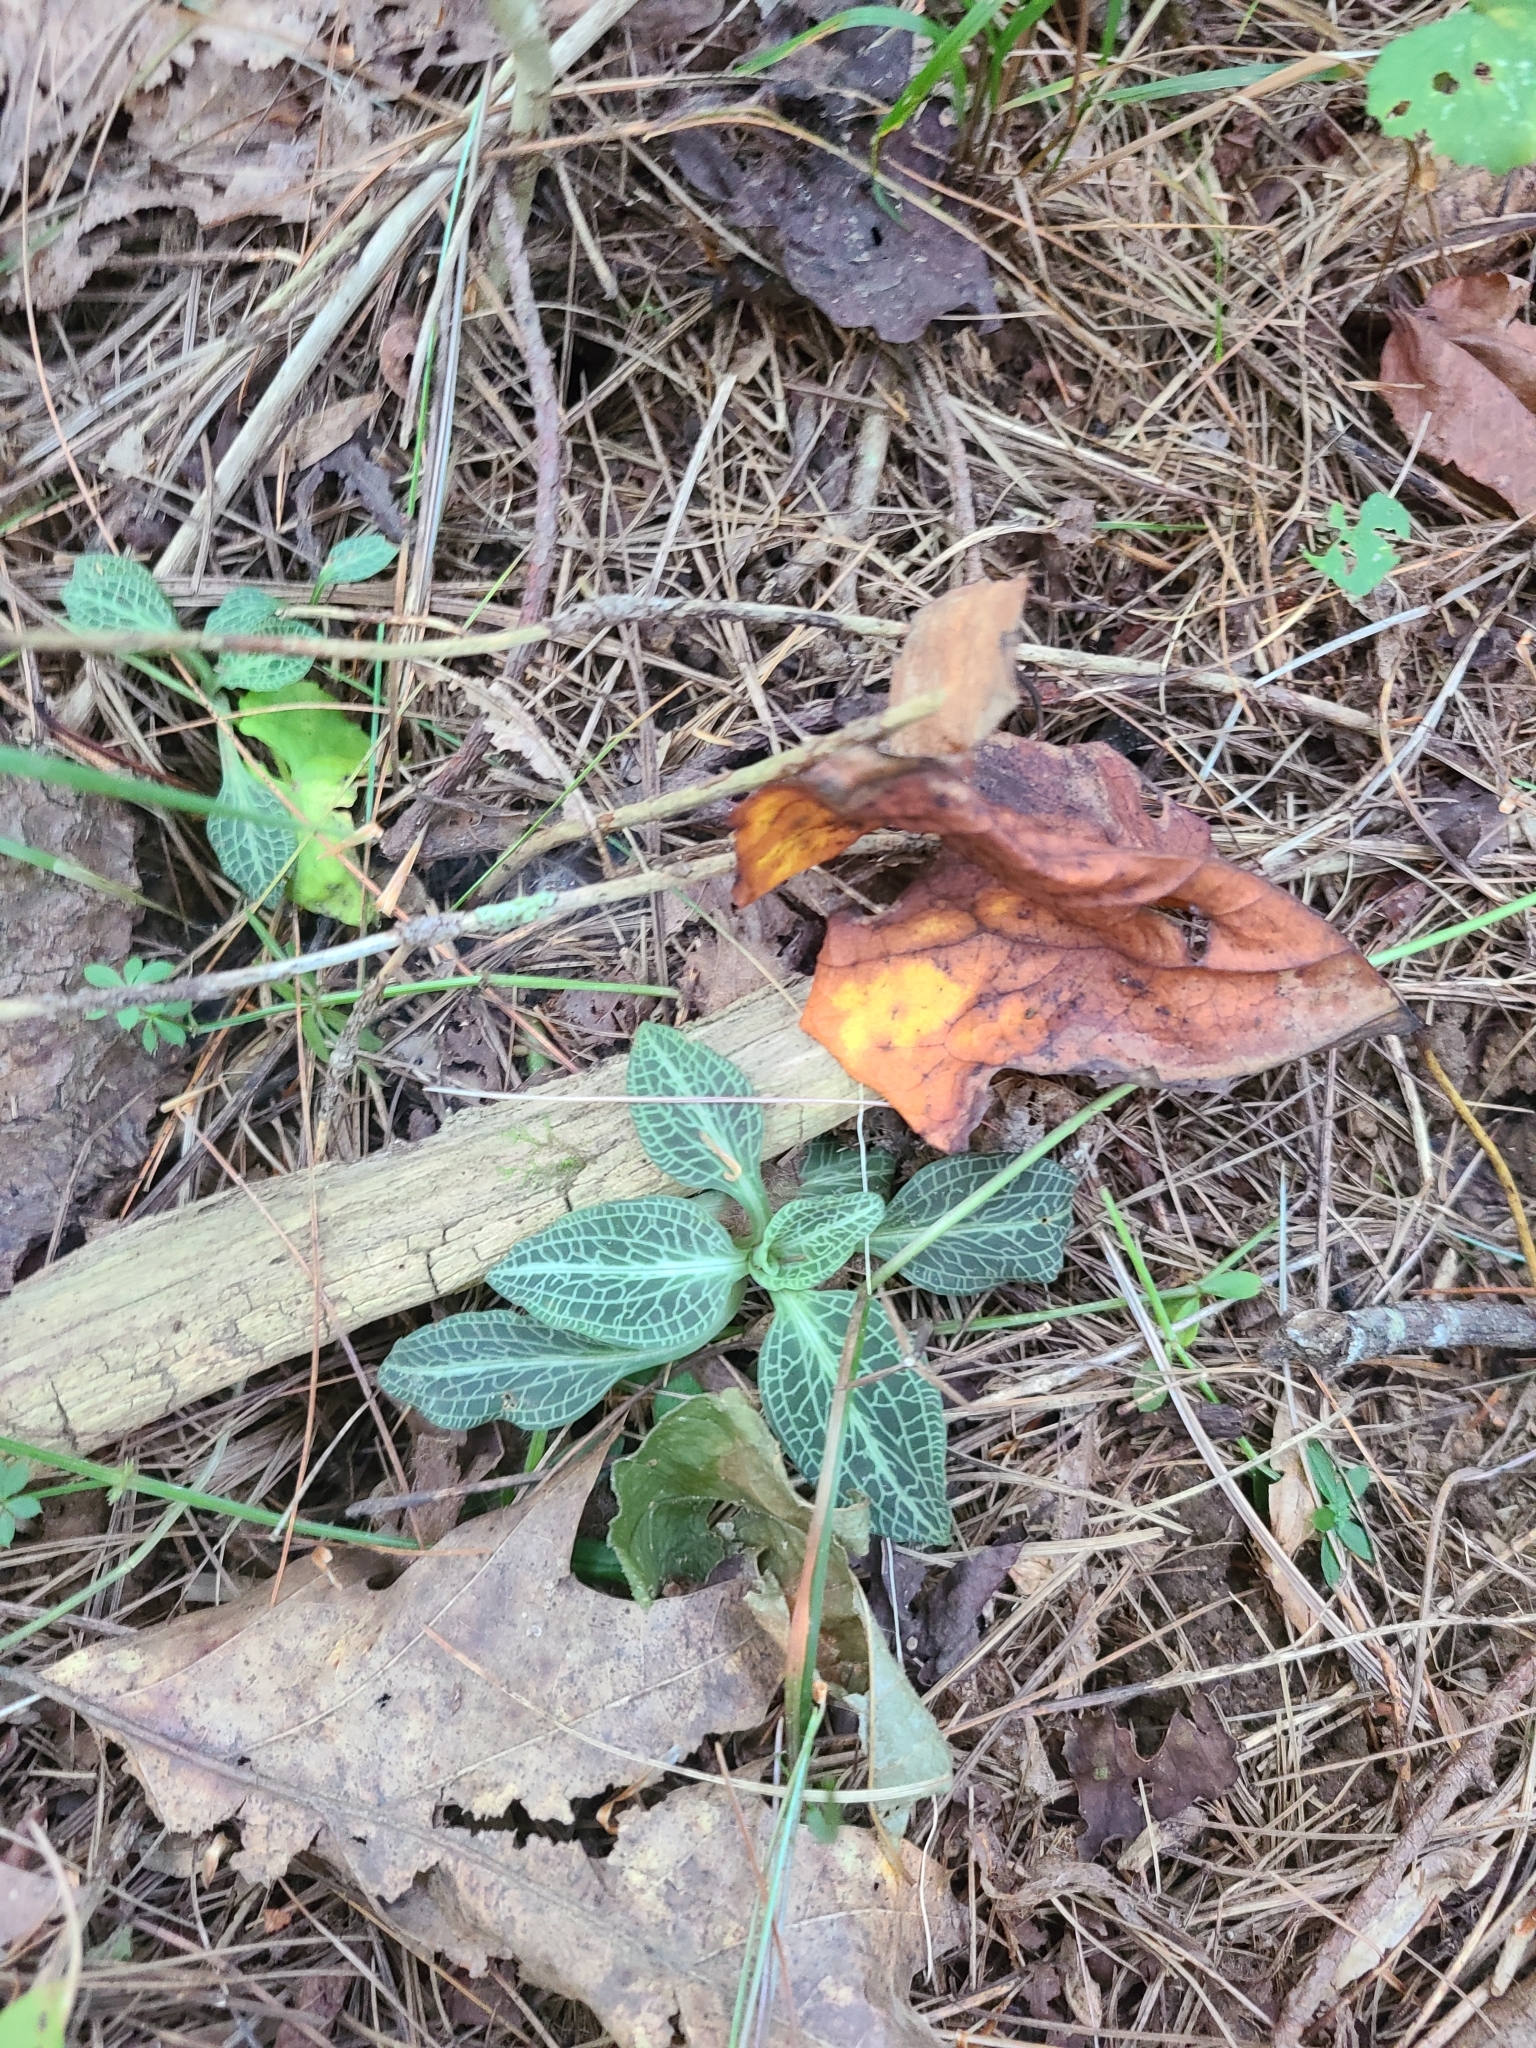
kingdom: Plantae
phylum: Tracheophyta
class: Liliopsida
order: Asparagales
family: Orchidaceae
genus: Goodyera
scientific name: Goodyera pubescens
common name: Downy rattlesnake-plantain
